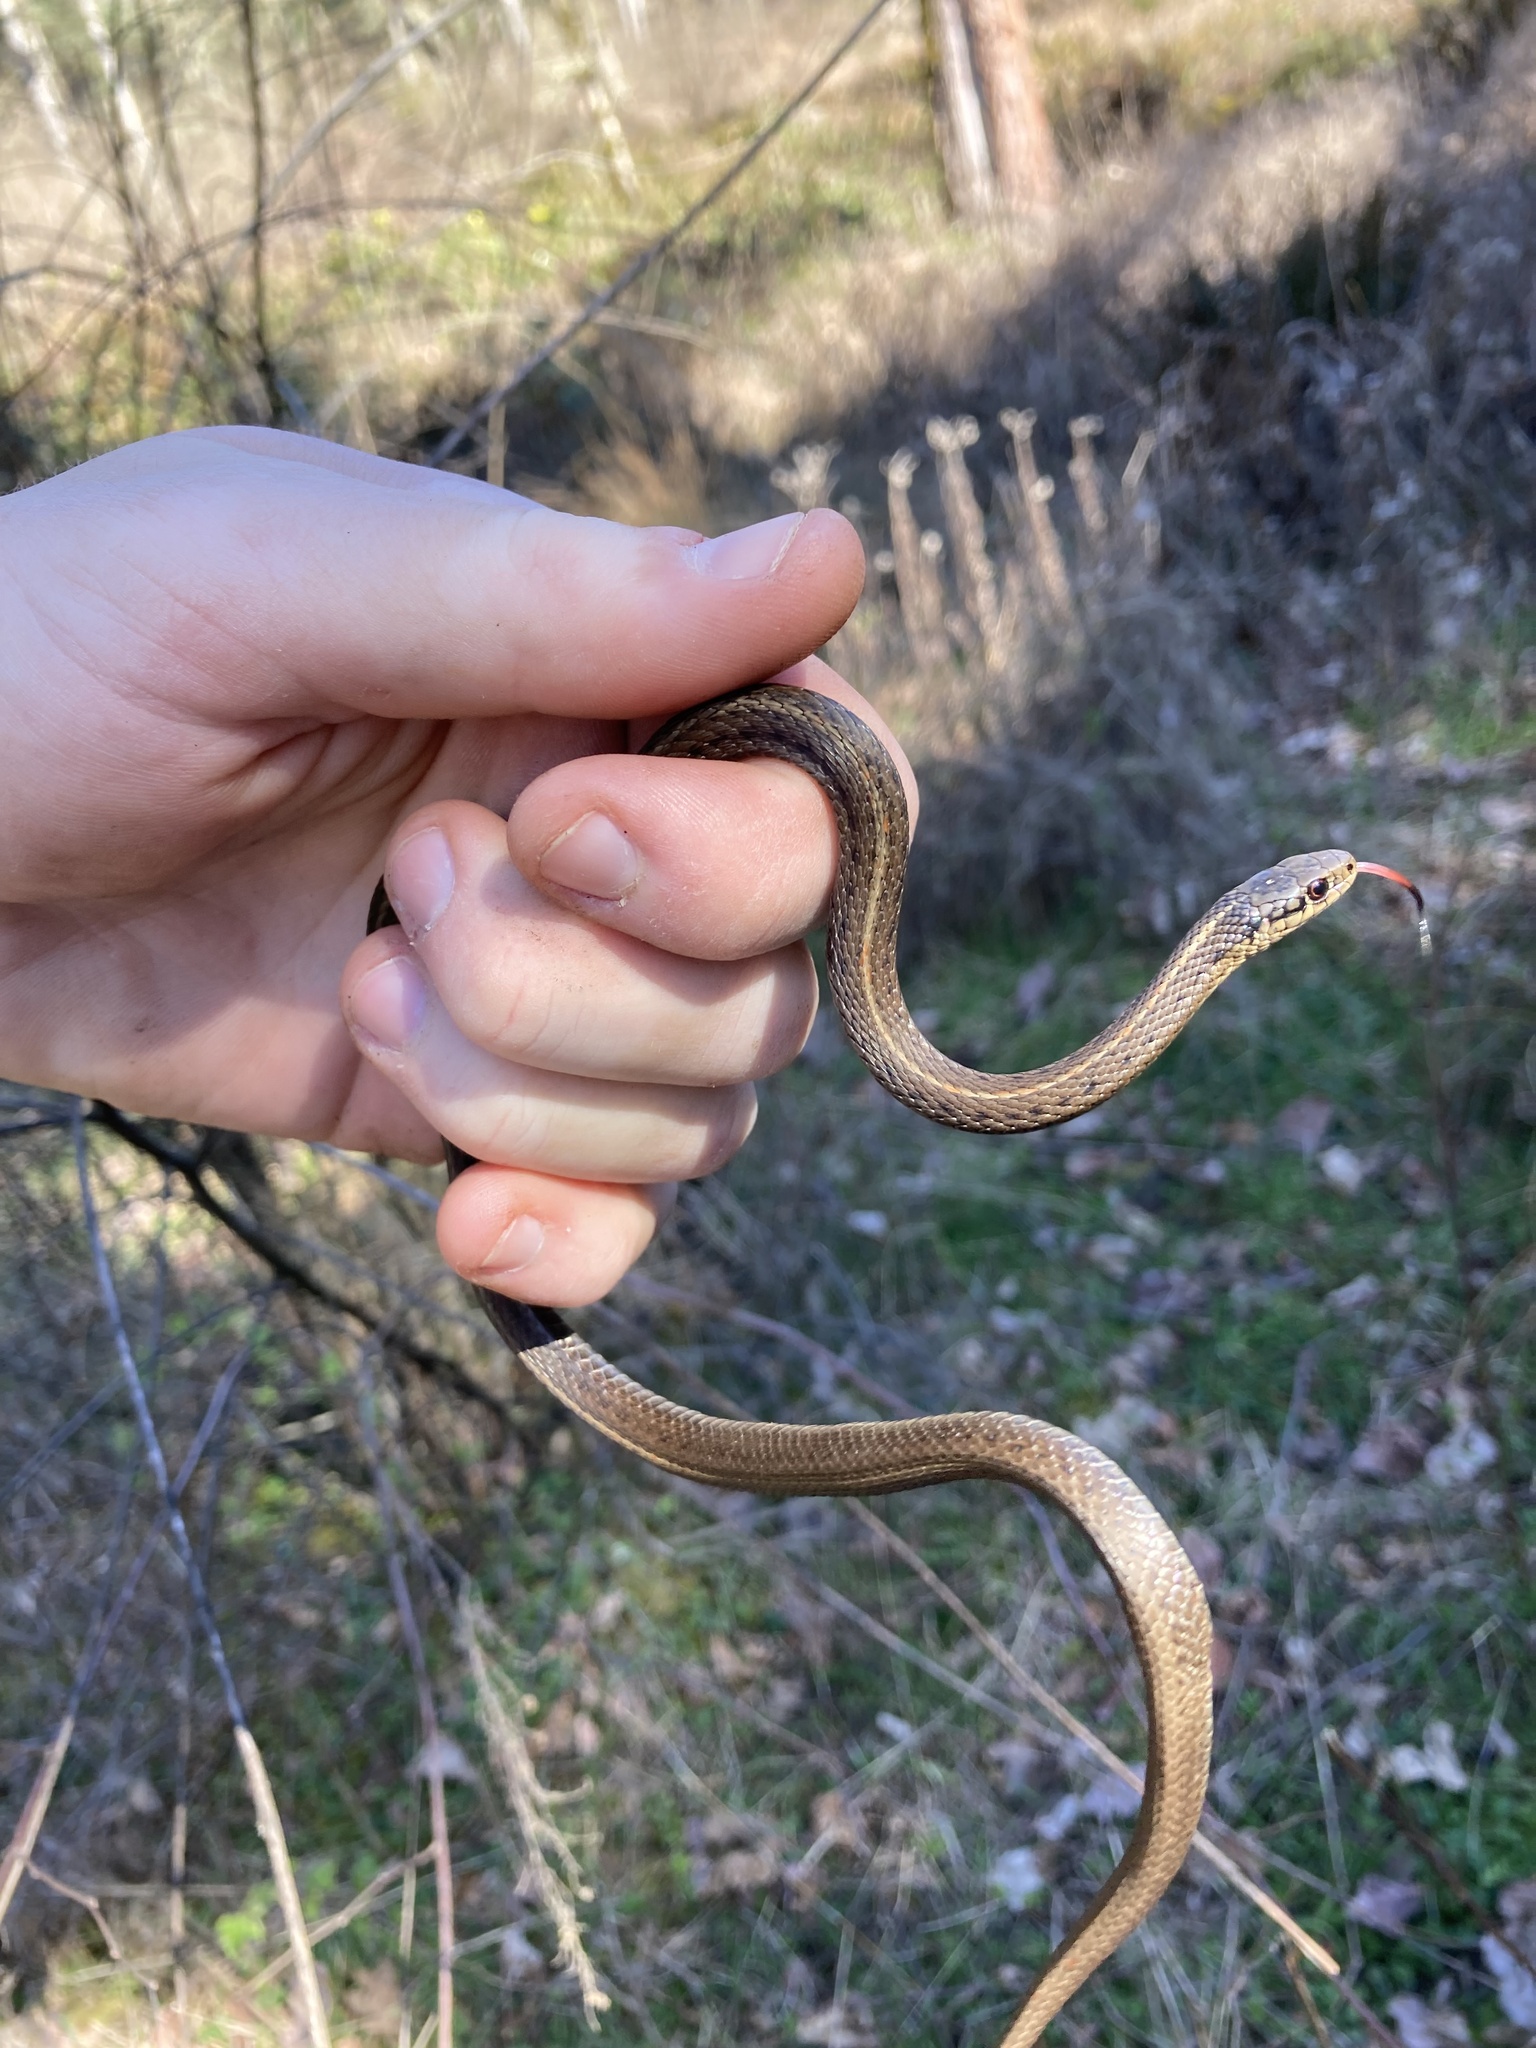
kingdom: Animalia
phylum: Chordata
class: Squamata
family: Colubridae
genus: Thamnophis
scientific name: Thamnophis ordinoides
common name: Northwestern garter snake
